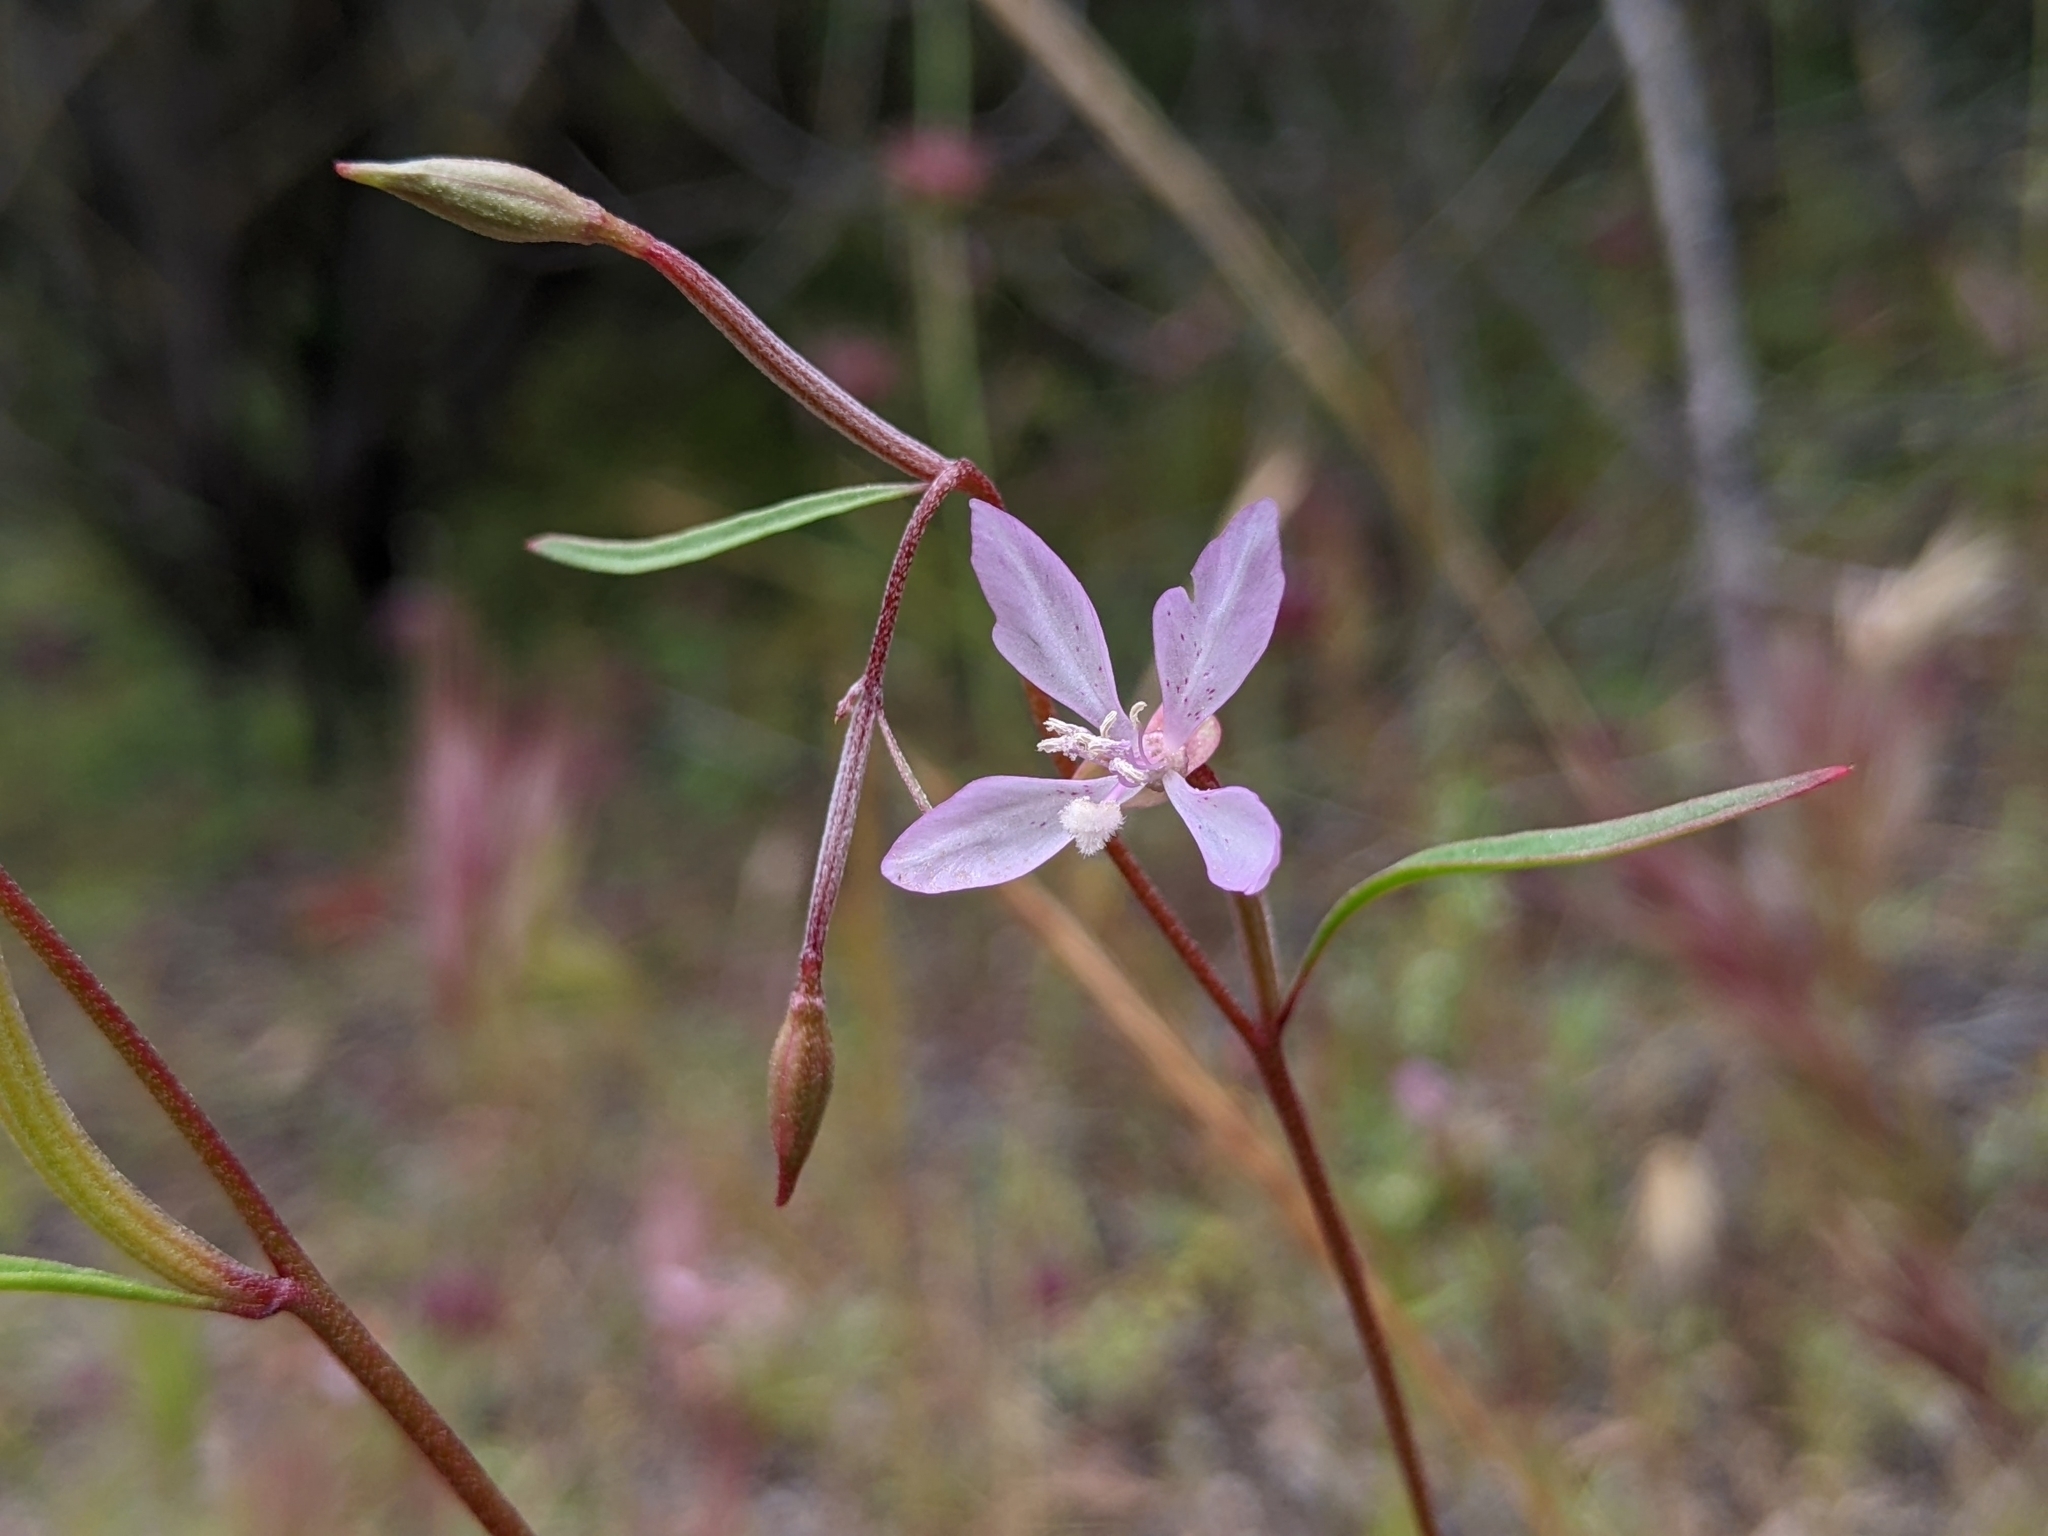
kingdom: Plantae
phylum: Tracheophyta
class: Magnoliopsida
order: Myrtales
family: Onagraceae
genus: Clarkia
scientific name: Clarkia modesta
